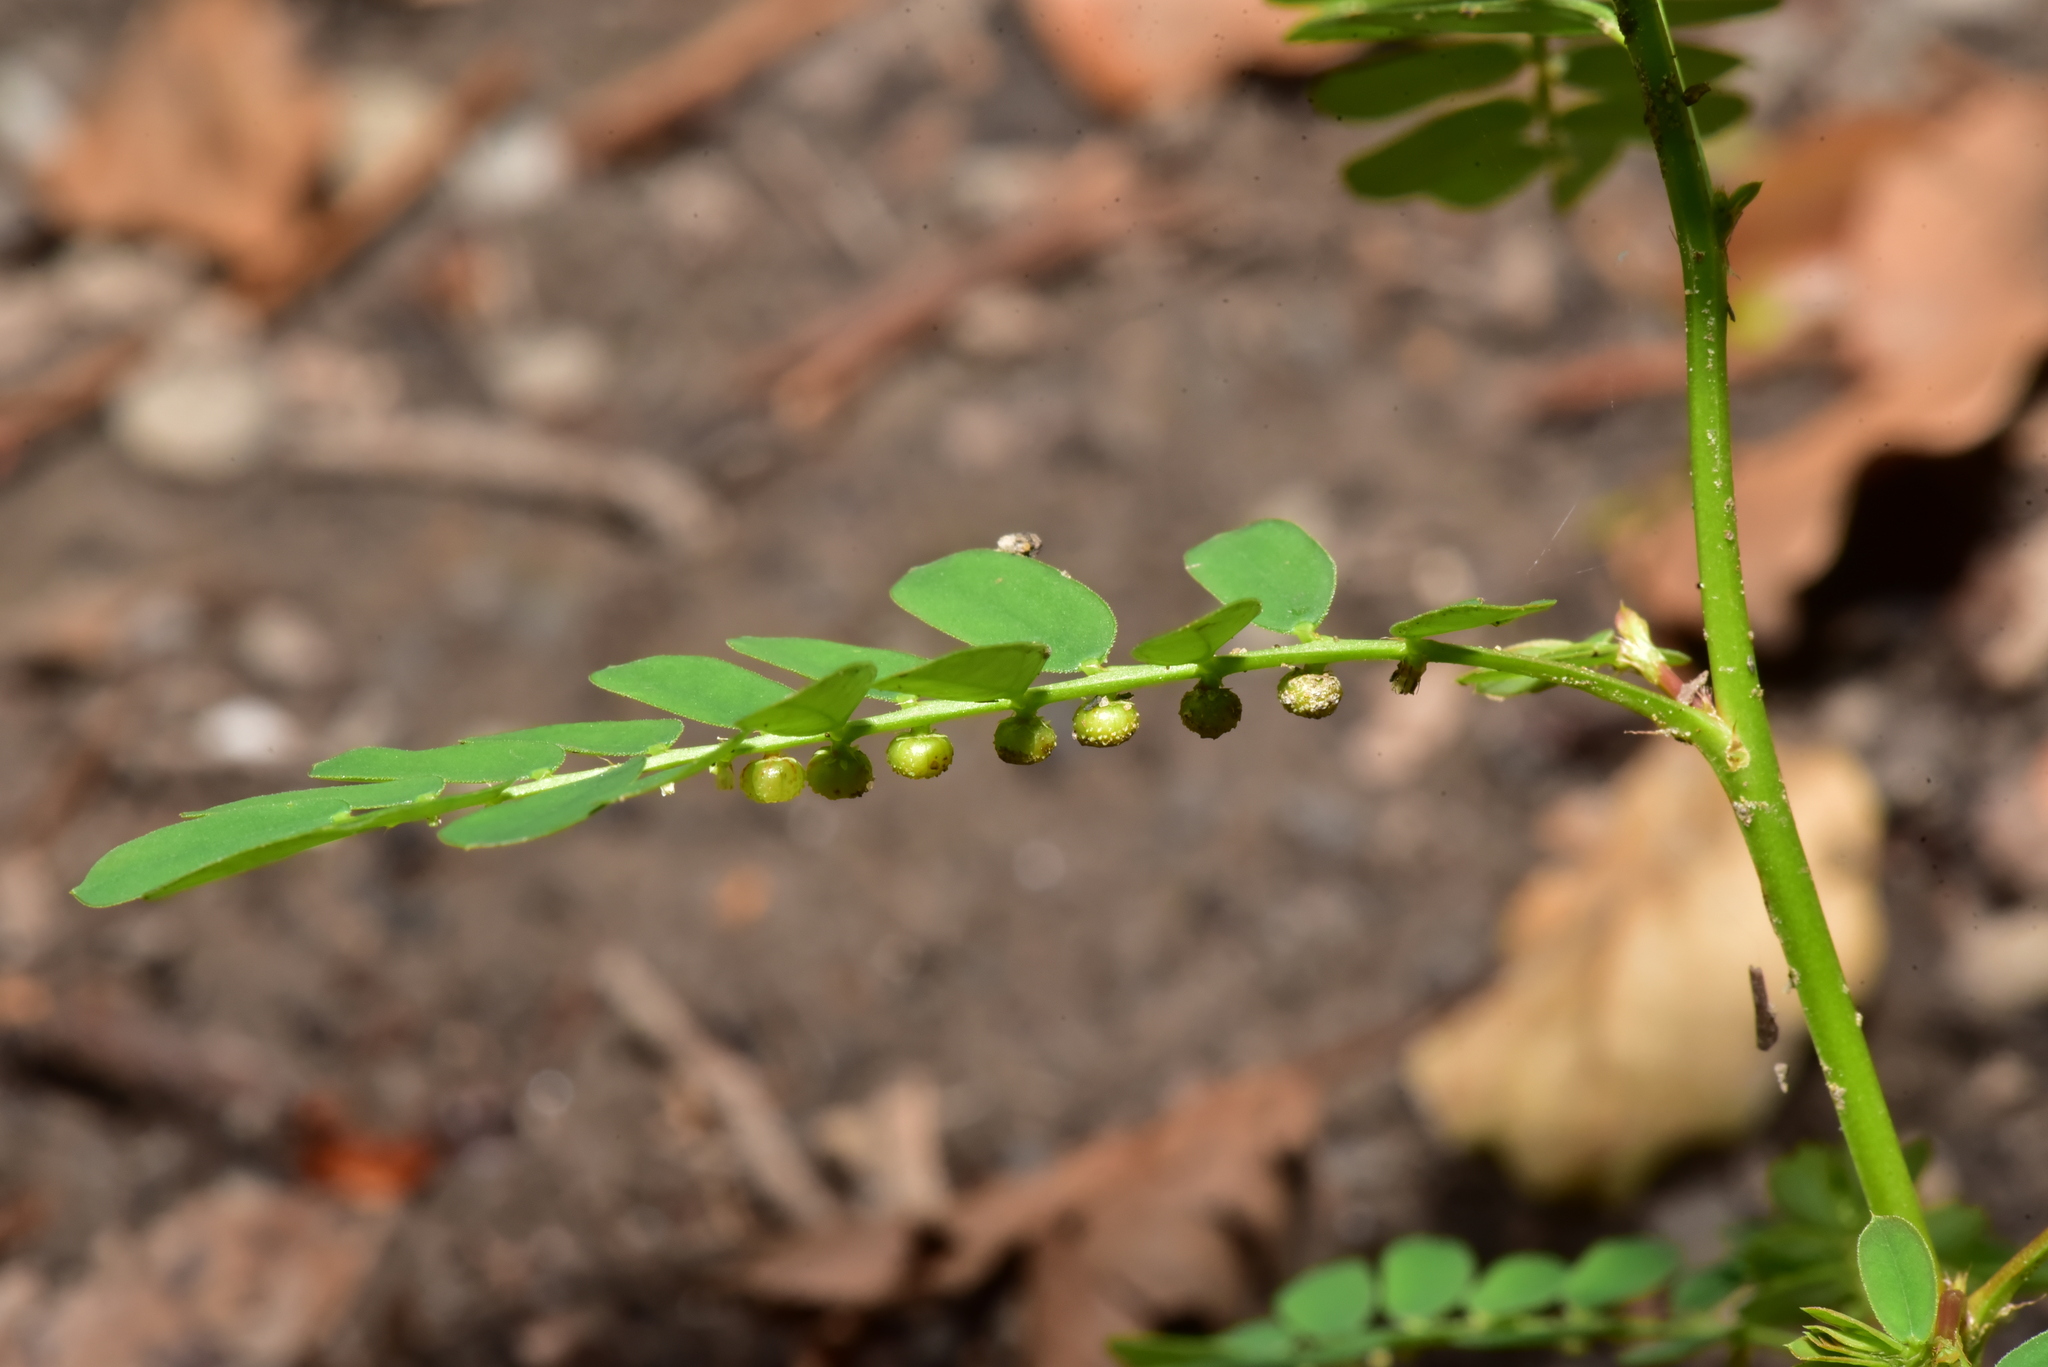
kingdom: Plantae
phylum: Tracheophyta
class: Magnoliopsida
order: Malpighiales
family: Phyllanthaceae
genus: Phyllanthus
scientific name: Phyllanthus urinaria
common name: Chamber bitter
